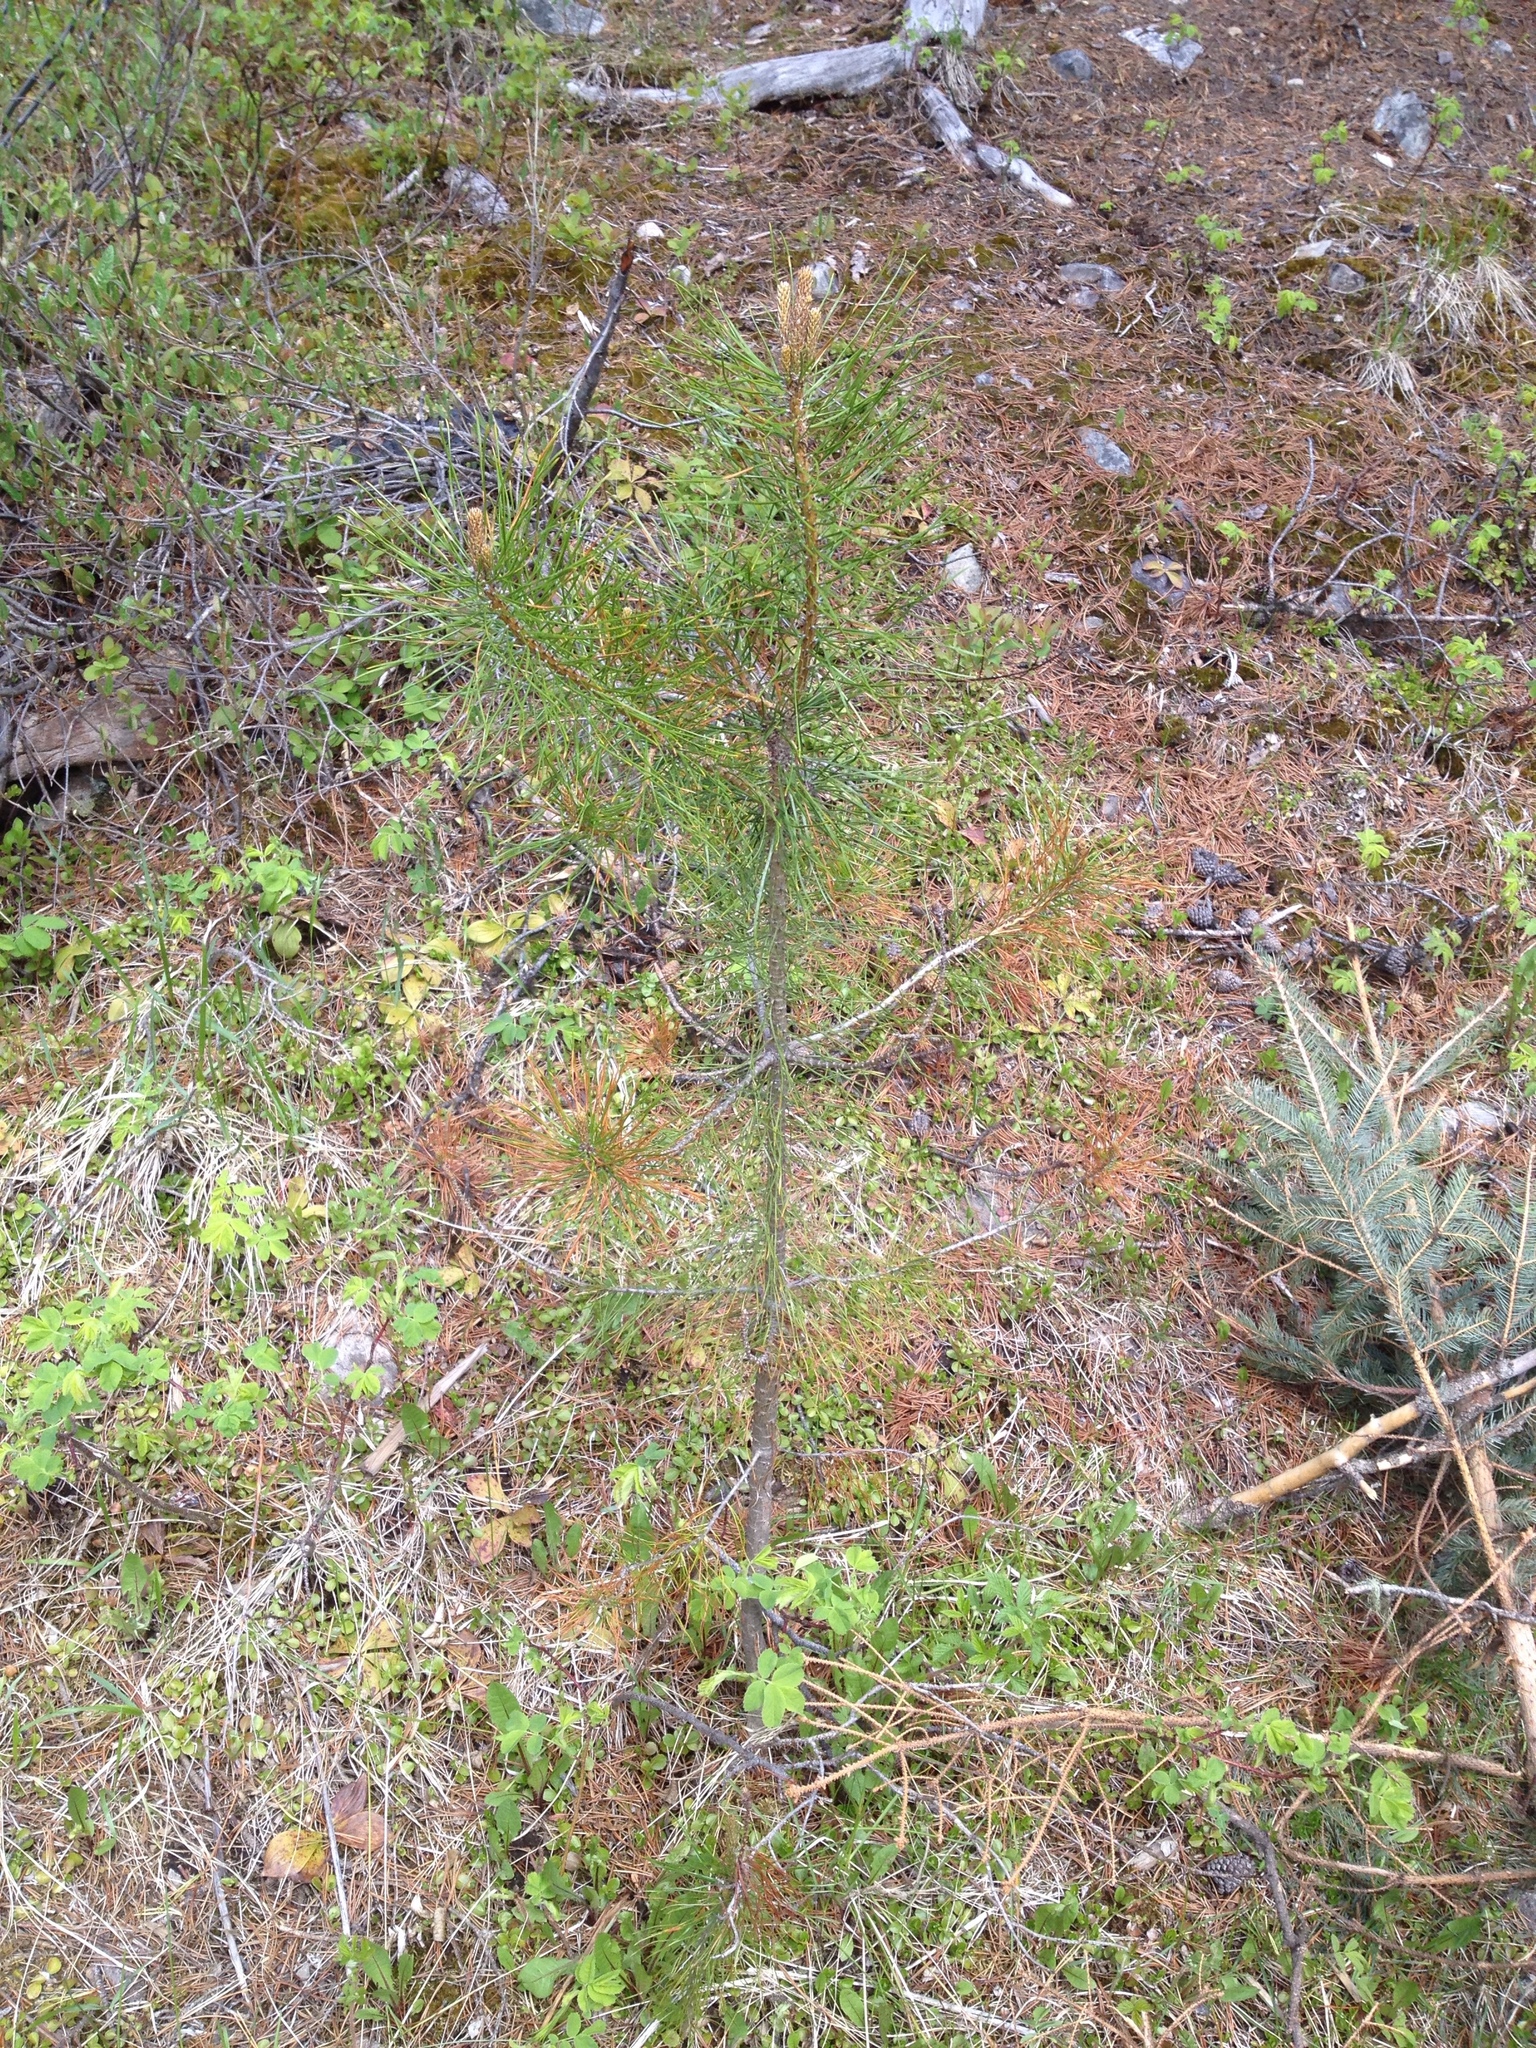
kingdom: Plantae
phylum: Tracheophyta
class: Pinopsida
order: Pinales
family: Pinaceae
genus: Pinus
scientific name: Pinus contorta
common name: Lodgepole pine
